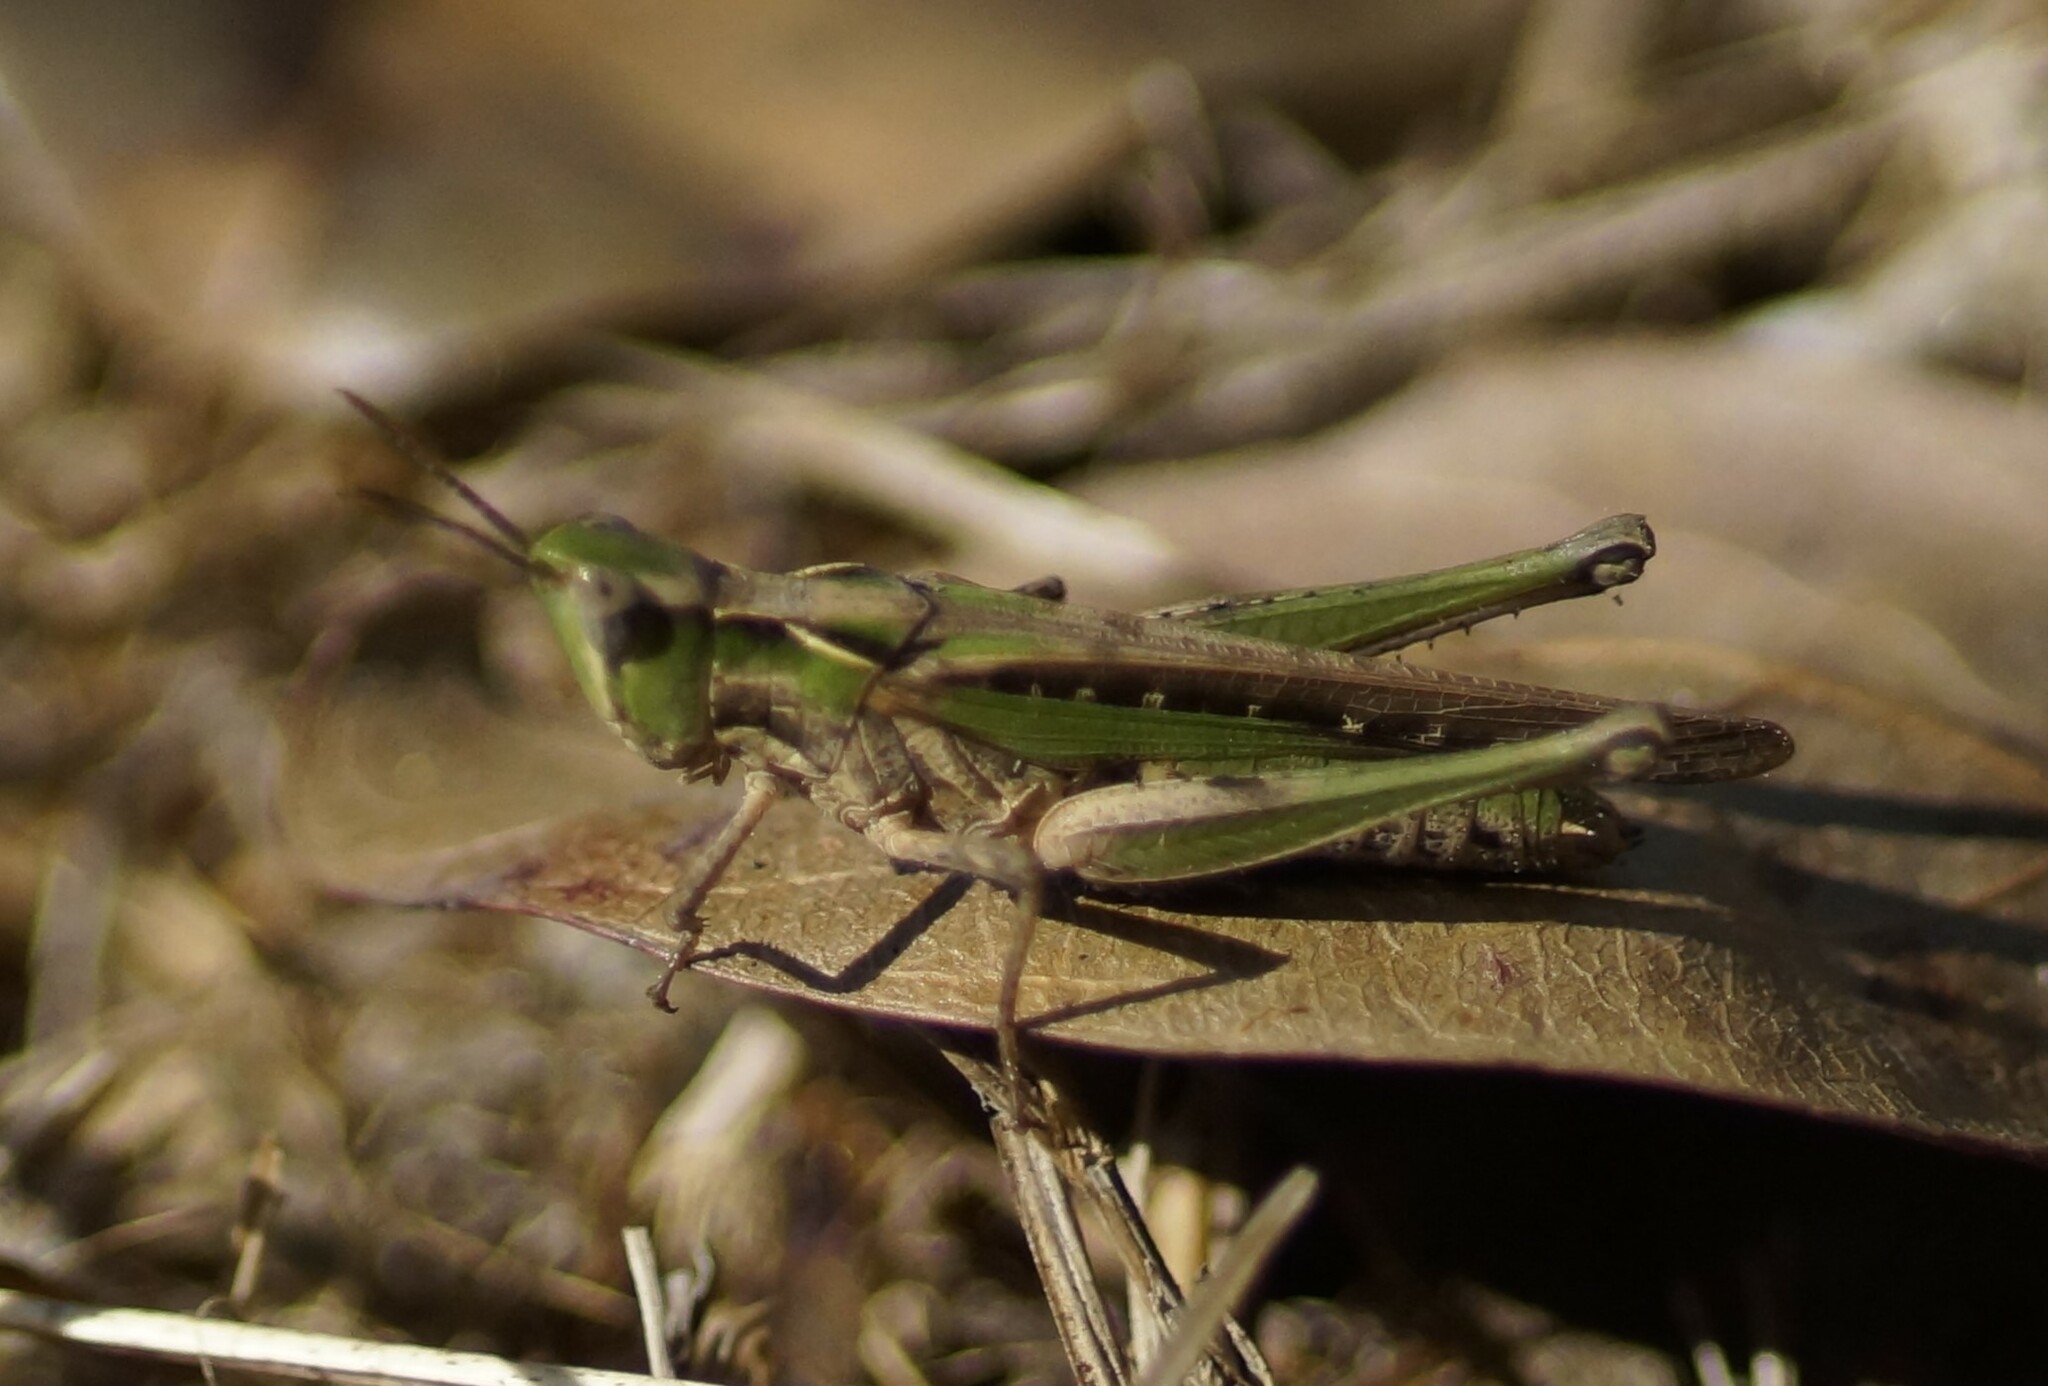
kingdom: Animalia
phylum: Arthropoda
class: Insecta
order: Orthoptera
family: Acrididae
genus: Froggattina
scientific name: Froggattina australis
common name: Froggatt's buzzer
